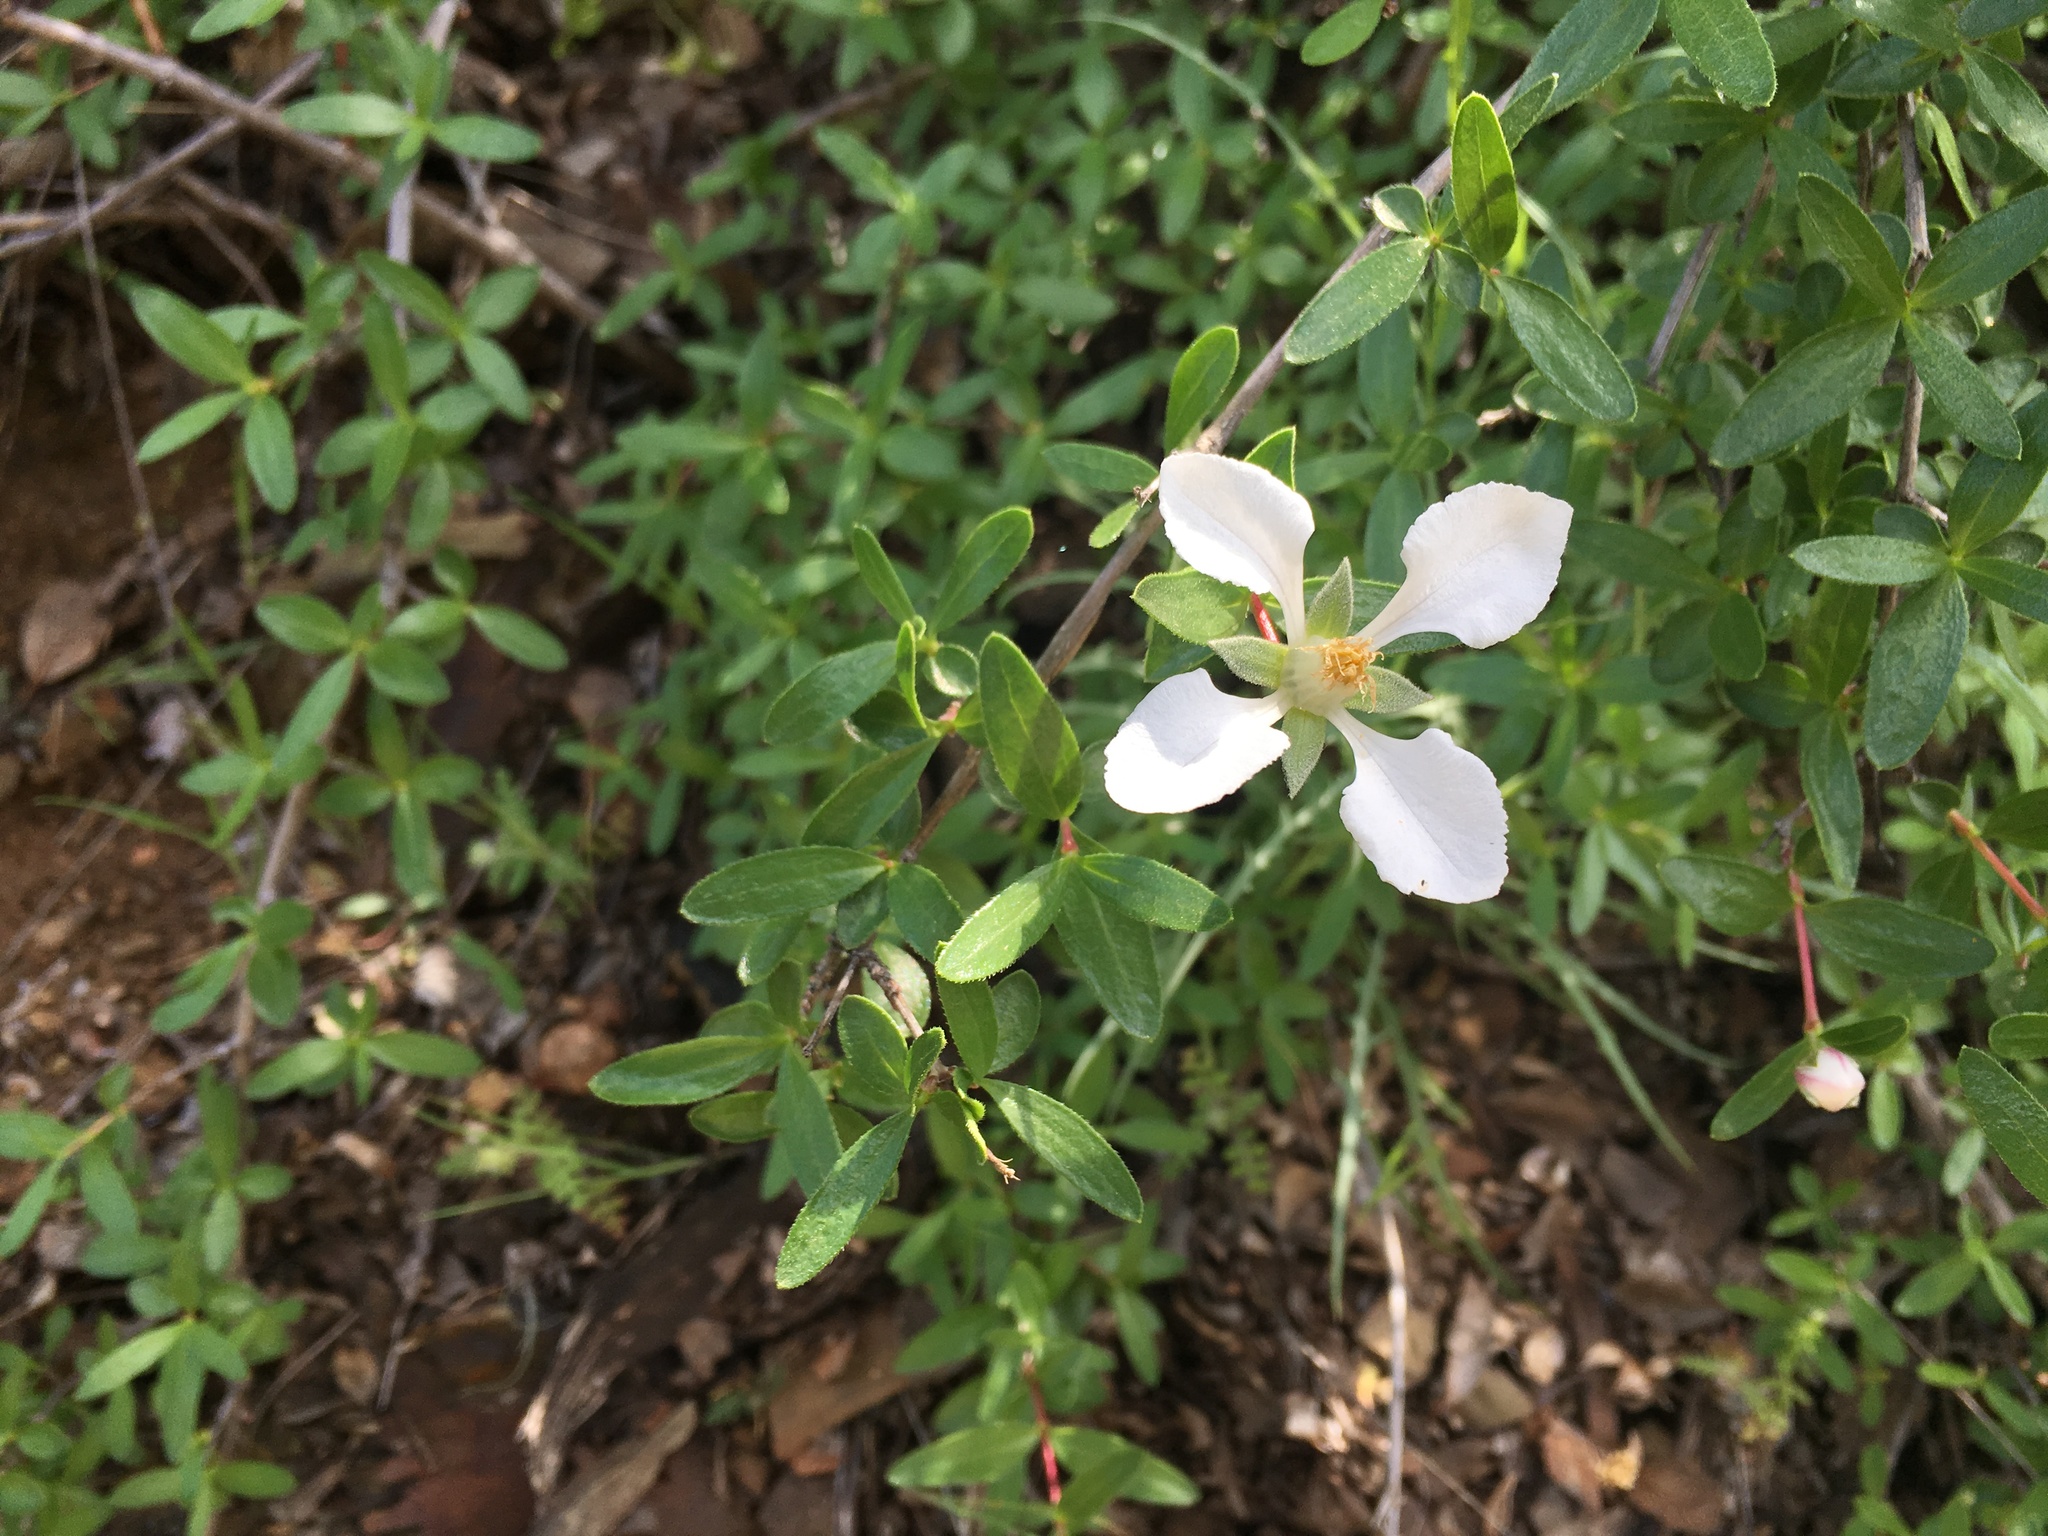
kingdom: Plantae
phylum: Tracheophyta
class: Magnoliopsida
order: Cornales
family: Hydrangeaceae
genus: Fendlera
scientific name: Fendlera rupicola
